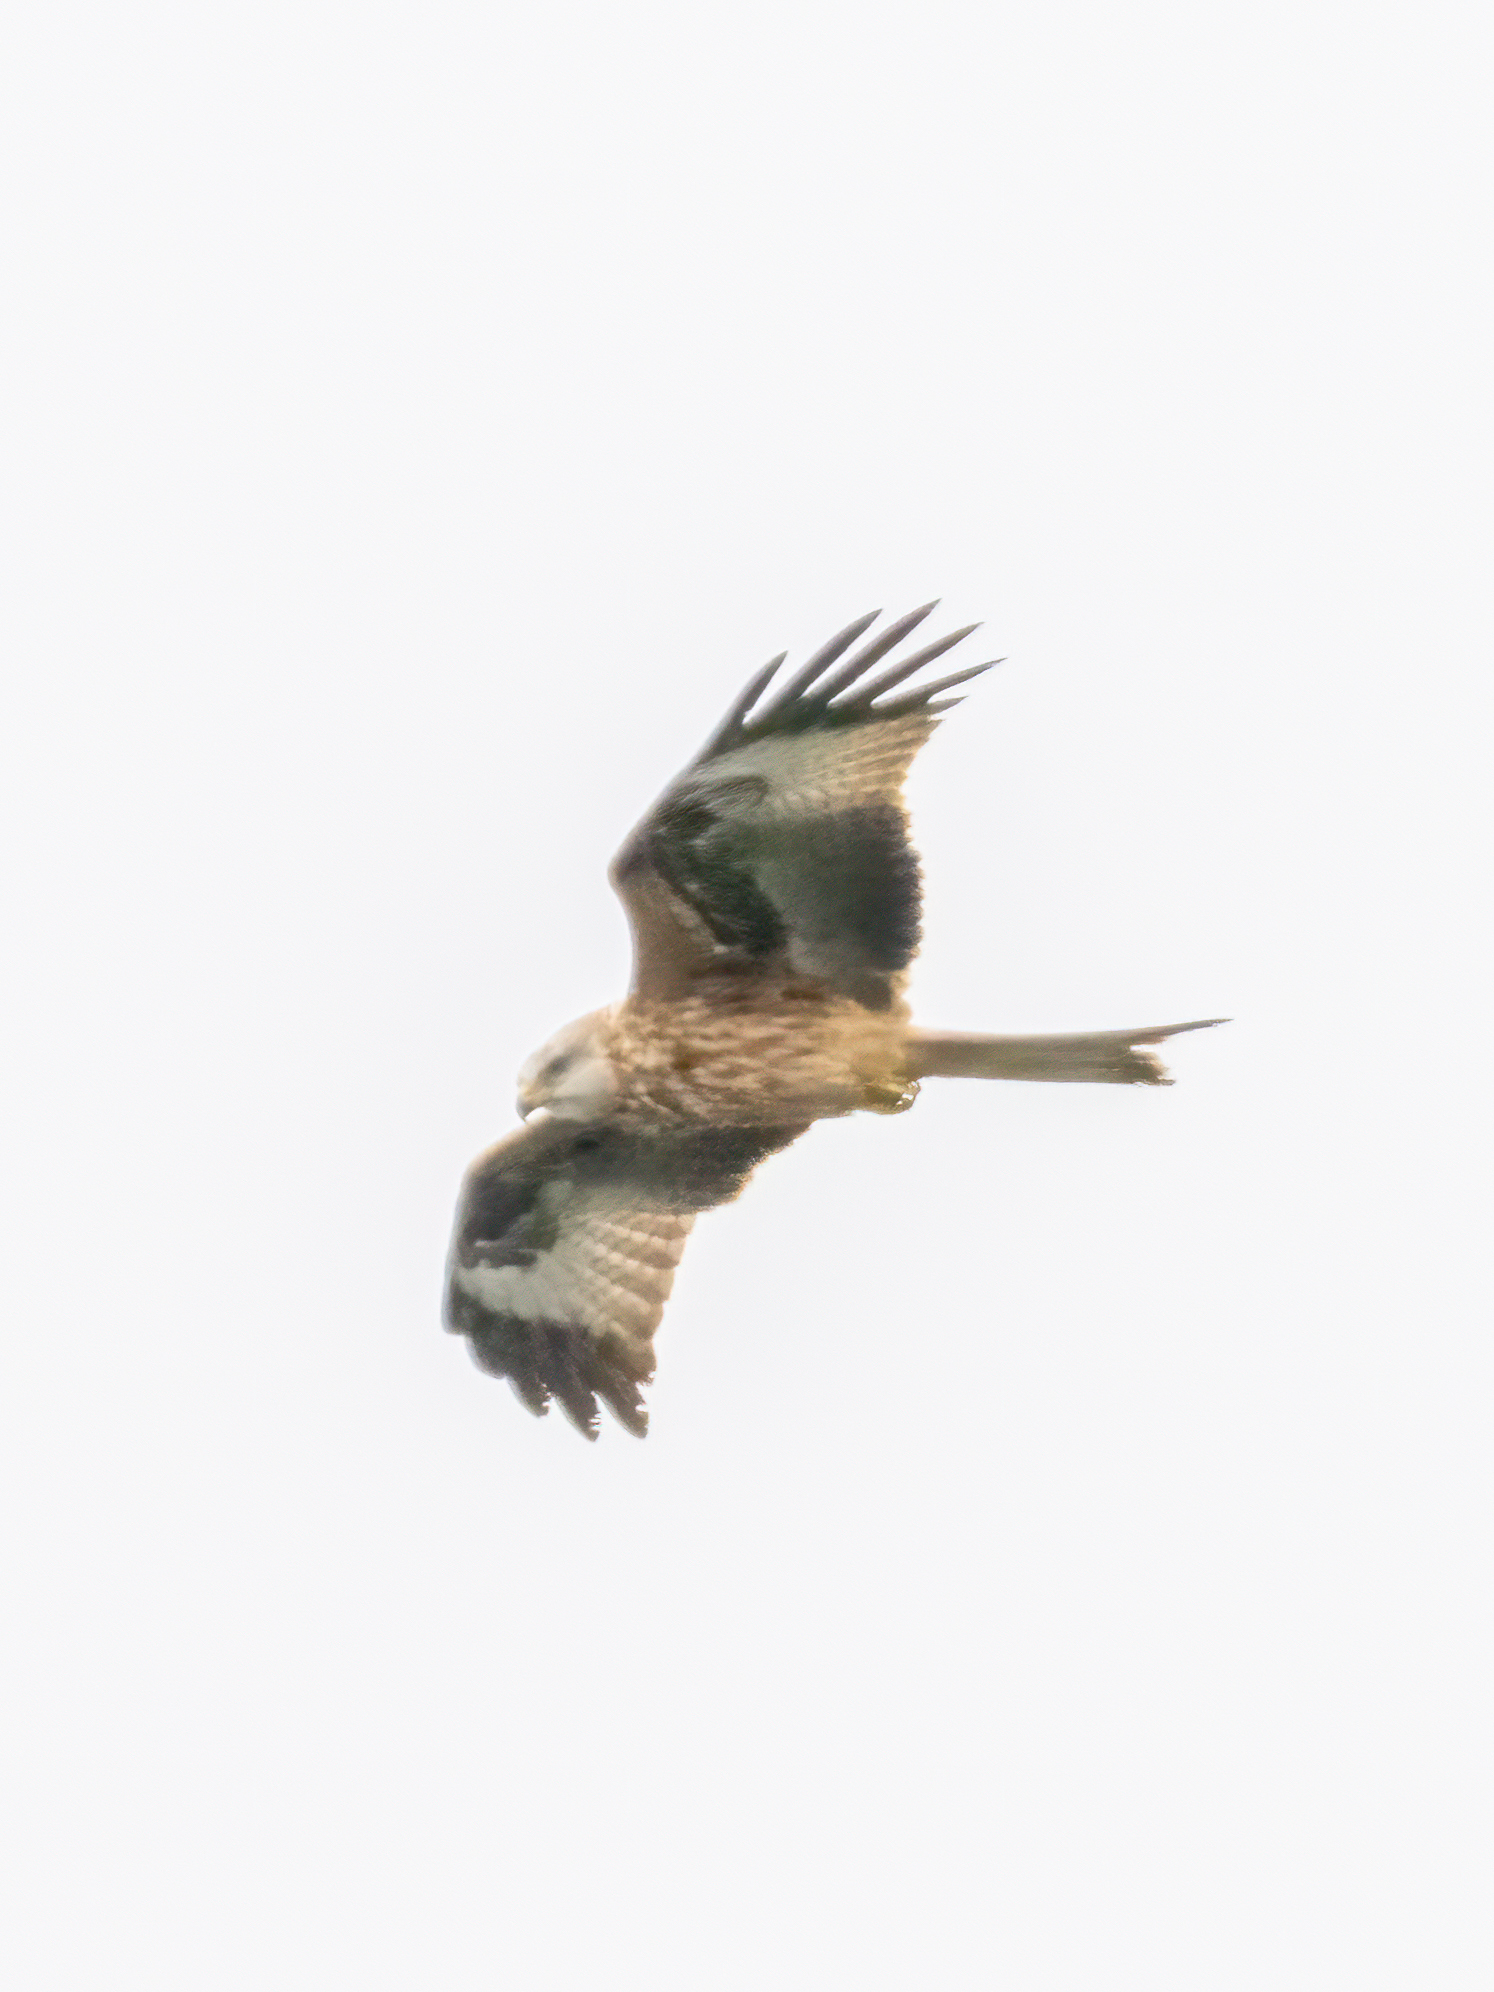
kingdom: Animalia
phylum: Chordata
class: Aves
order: Accipitriformes
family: Accipitridae
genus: Milvus
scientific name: Milvus milvus
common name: Red kite
